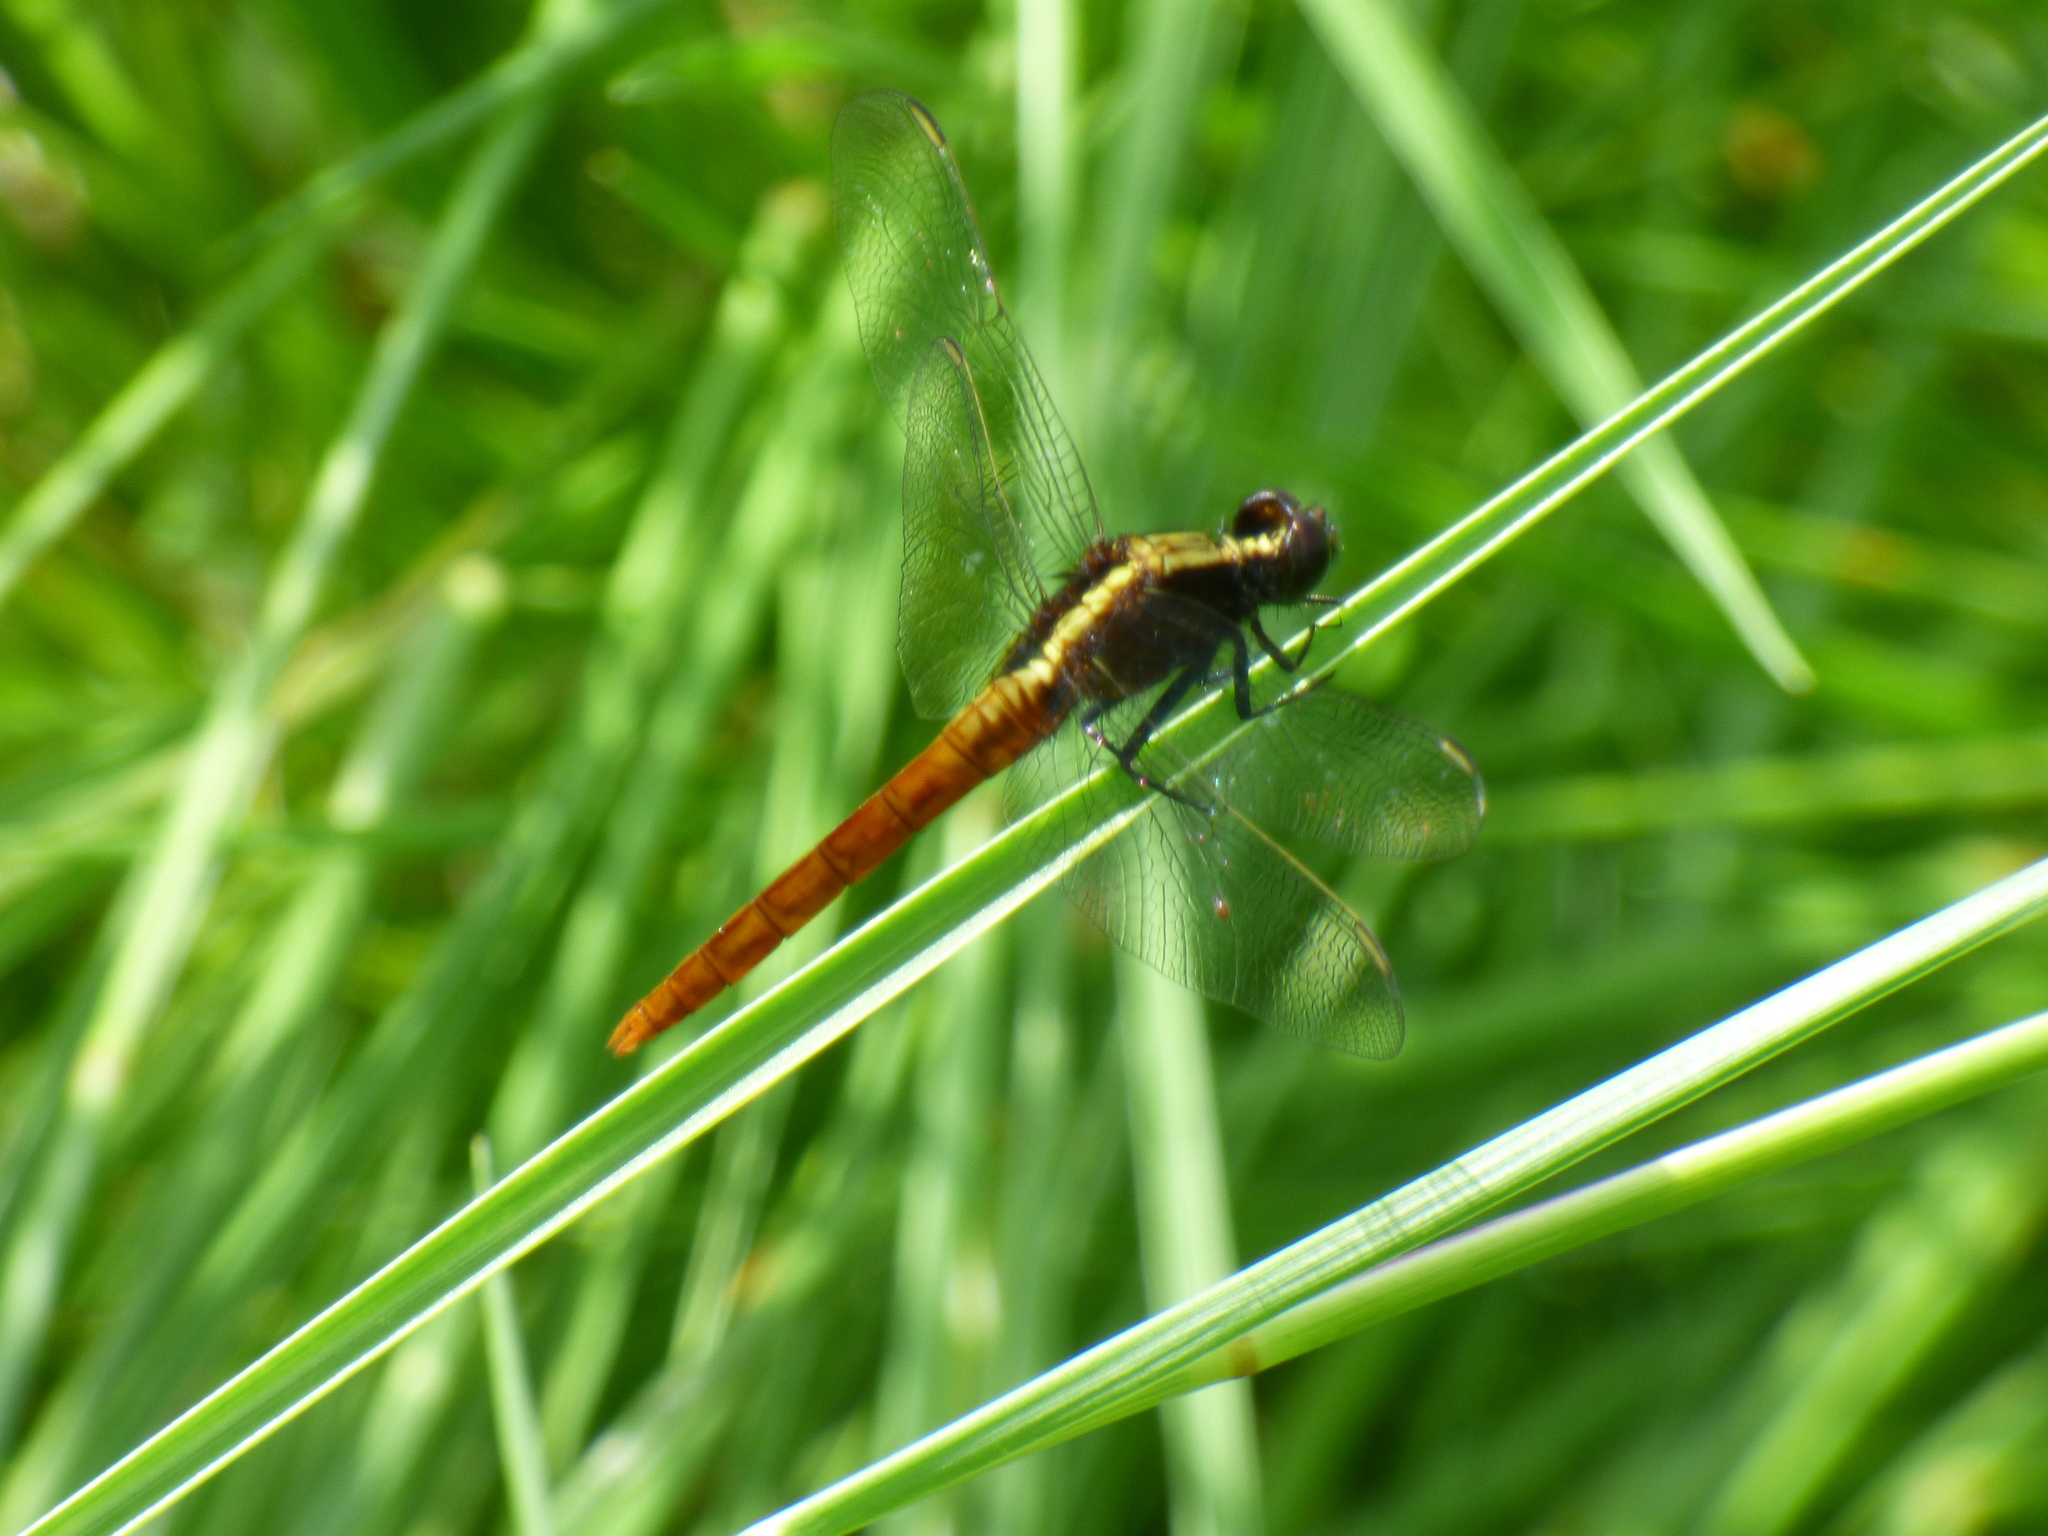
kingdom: Animalia
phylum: Arthropoda
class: Insecta
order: Odonata
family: Libellulidae
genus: Erythemis
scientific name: Erythemis peruviana
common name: Flame-tailed pondhawk
